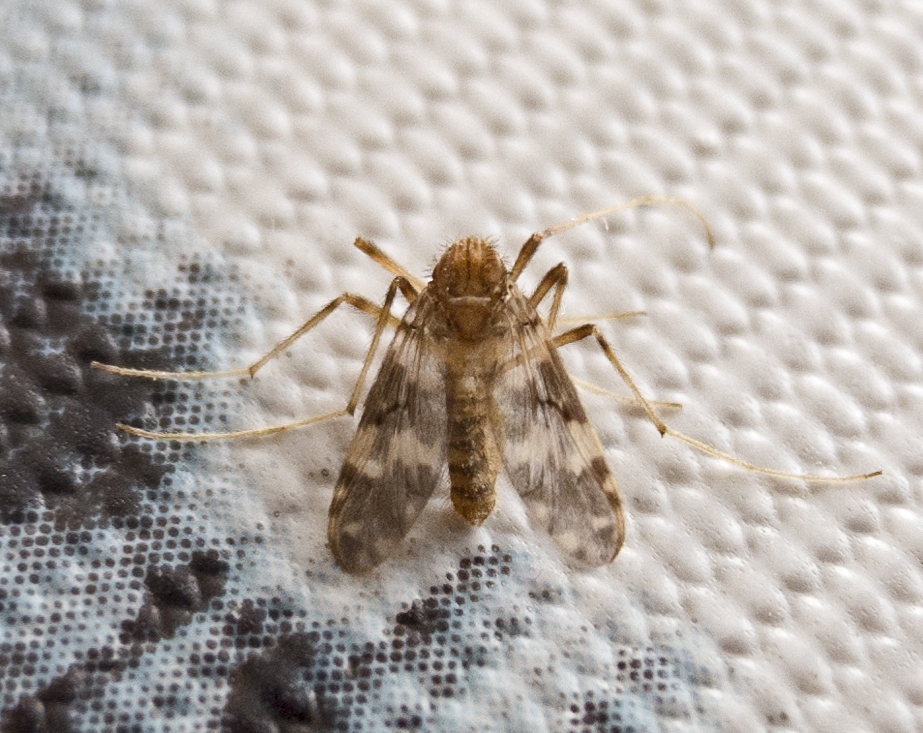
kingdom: Animalia
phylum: Arthropoda
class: Insecta
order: Diptera
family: Chironomidae
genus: Psectrotanypus
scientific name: Psectrotanypus varius
